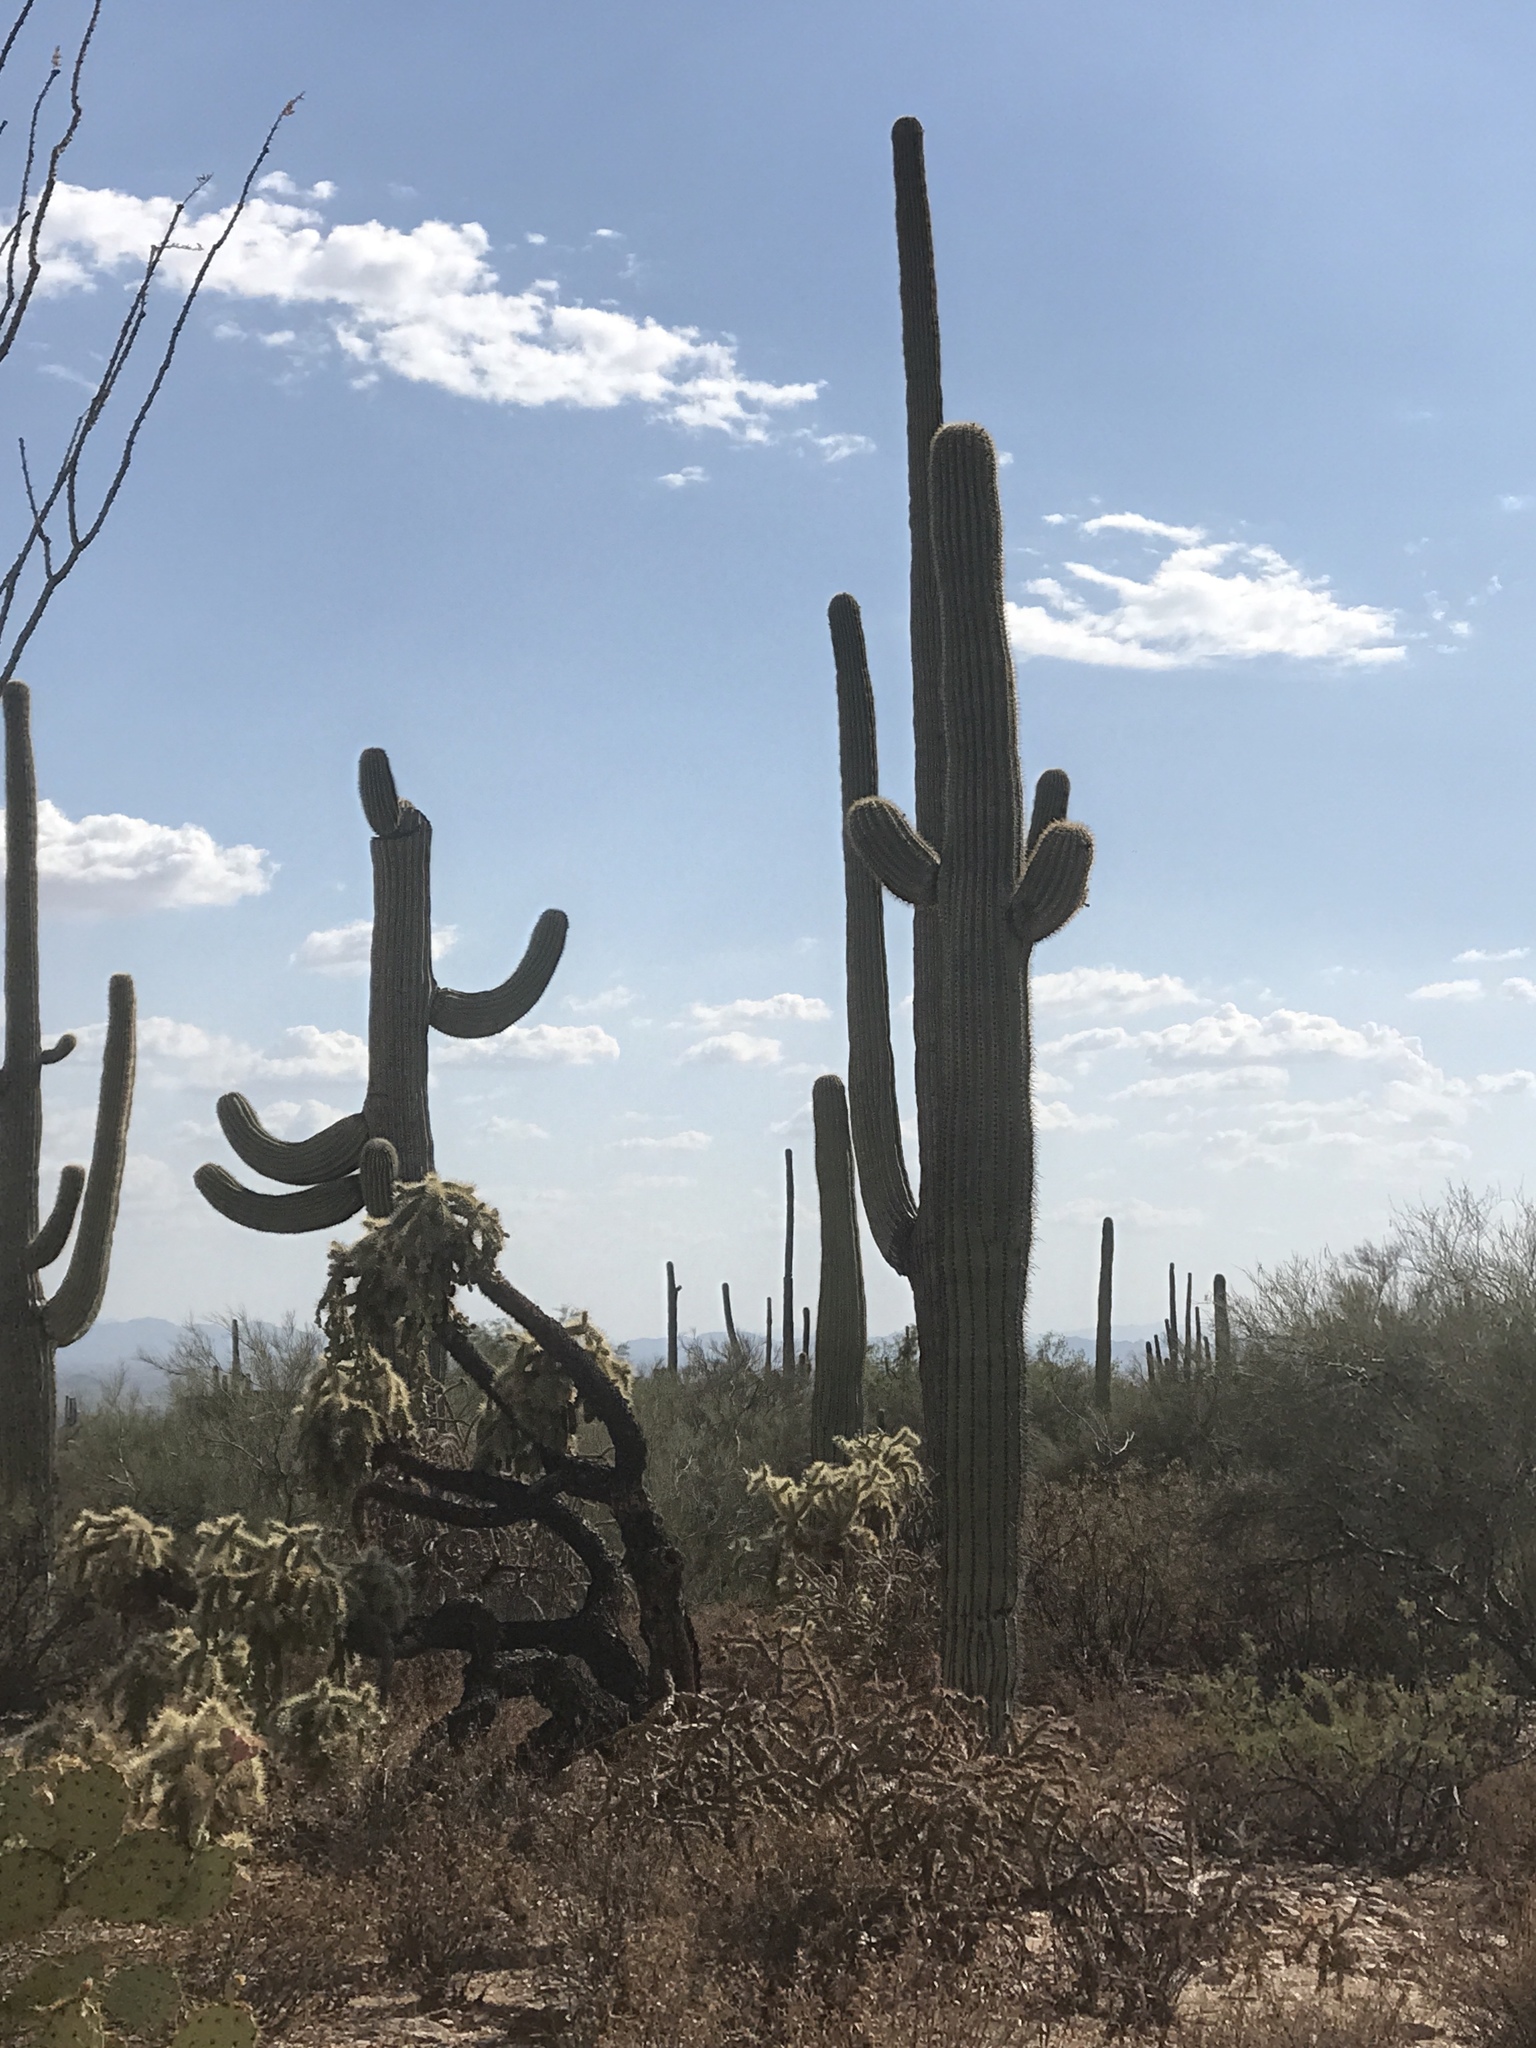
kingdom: Plantae
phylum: Tracheophyta
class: Magnoliopsida
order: Caryophyllales
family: Cactaceae
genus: Carnegiea
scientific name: Carnegiea gigantea
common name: Saguaro
